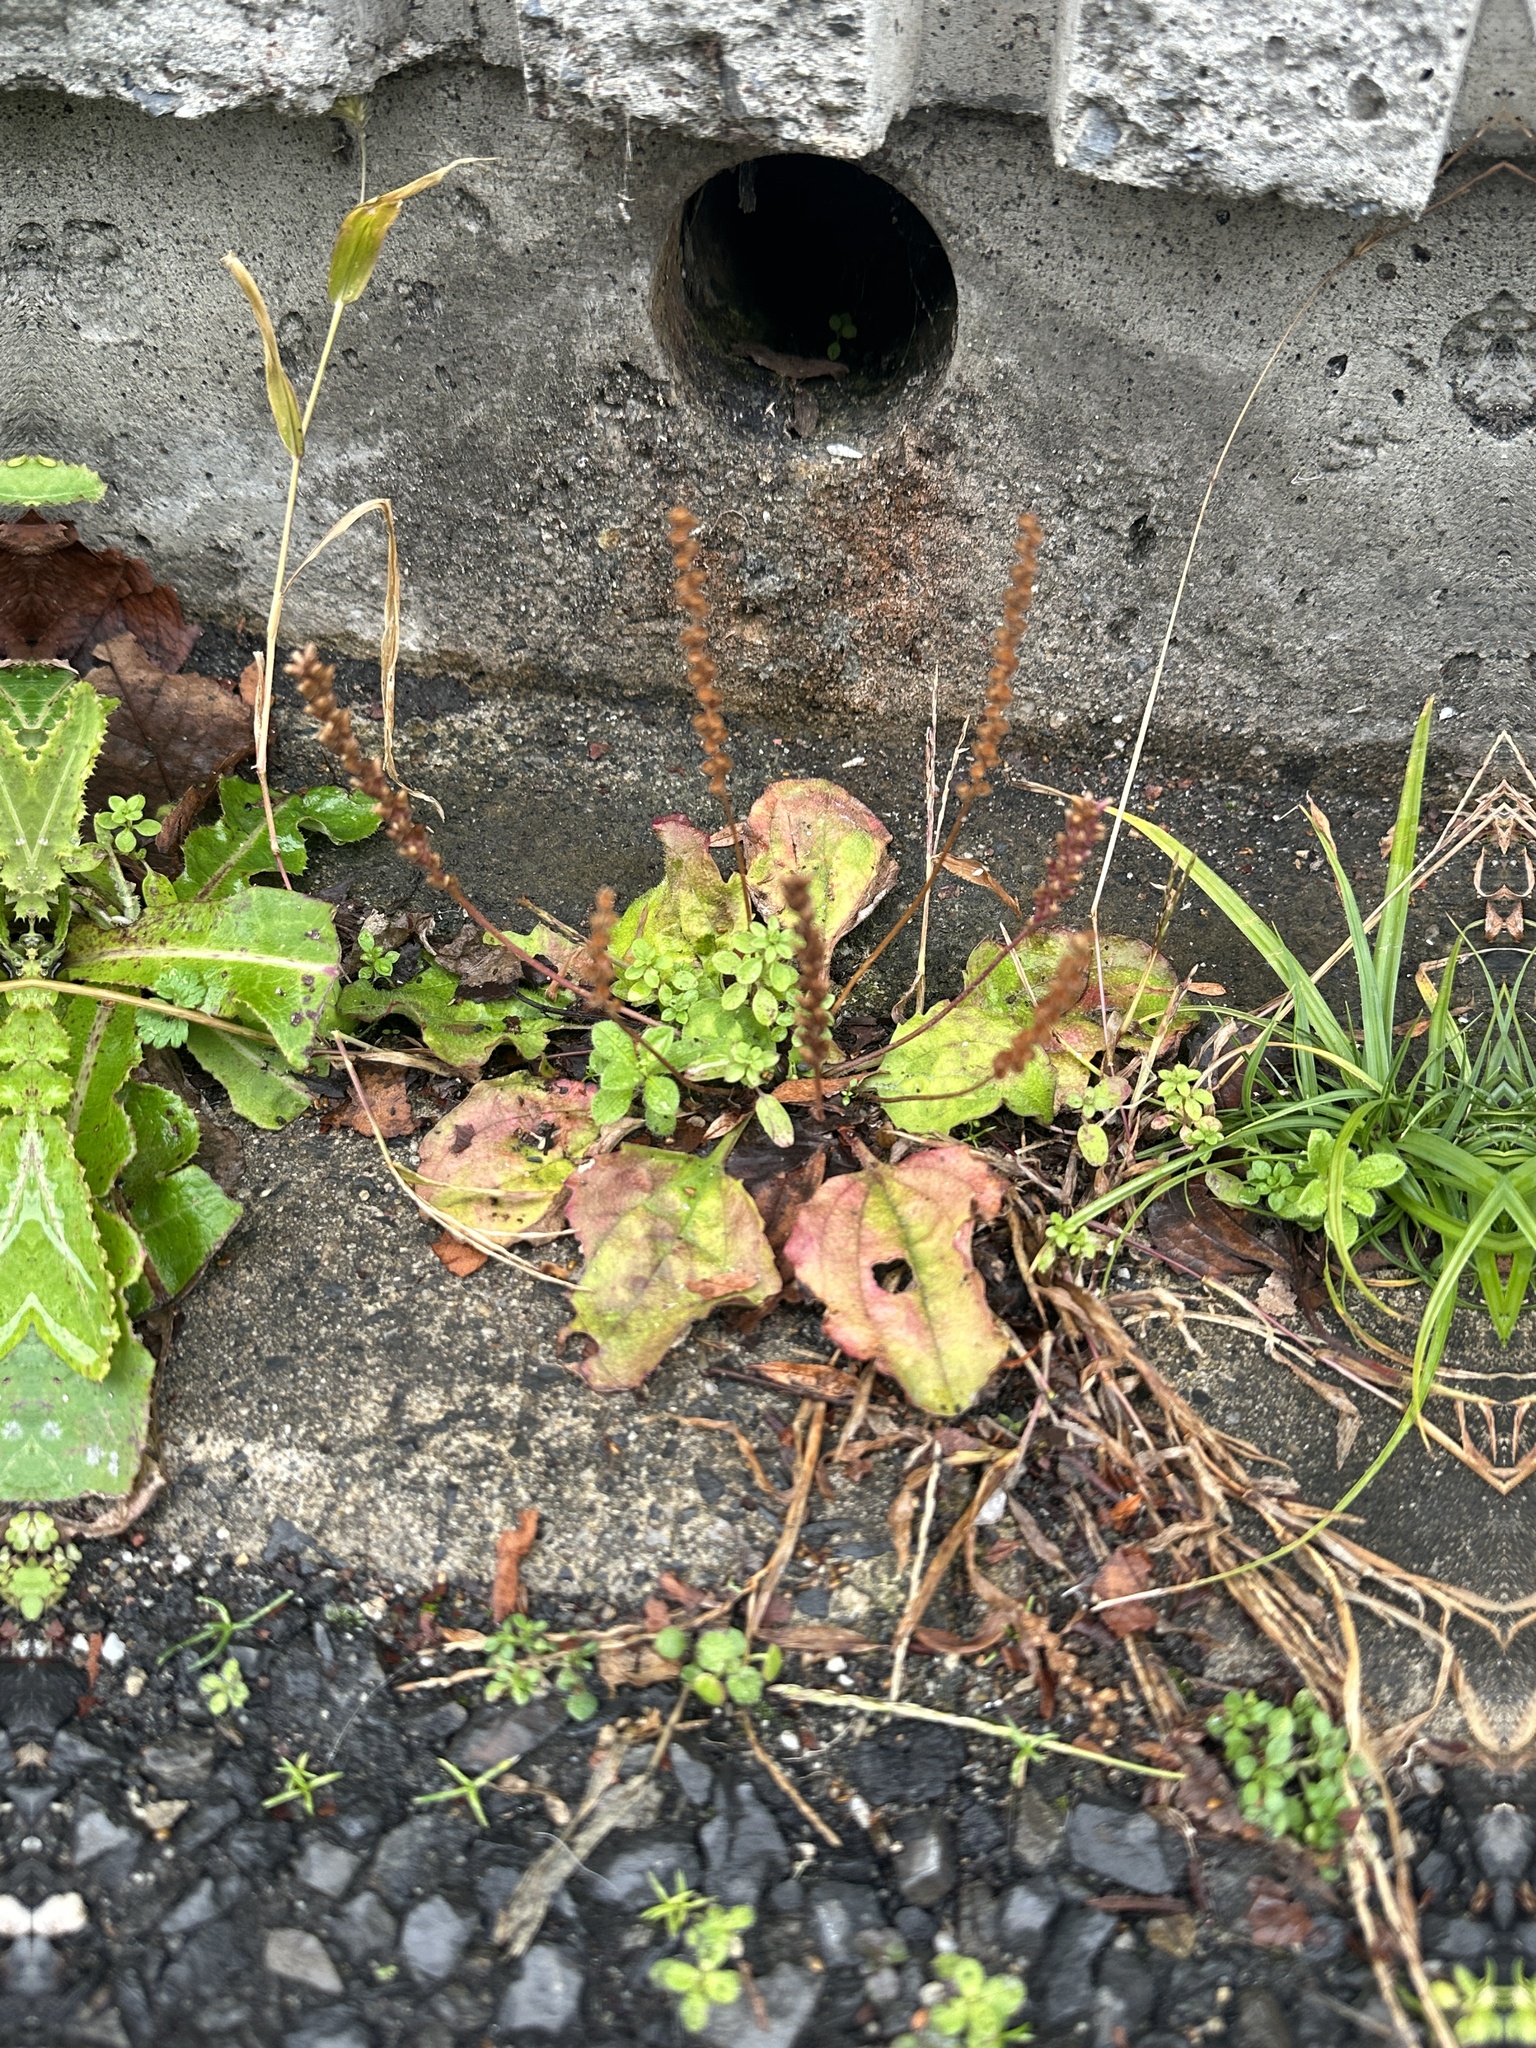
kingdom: Plantae
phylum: Tracheophyta
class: Magnoliopsida
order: Lamiales
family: Plantaginaceae
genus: Plantago
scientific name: Plantago asiatica
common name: Psyllium
